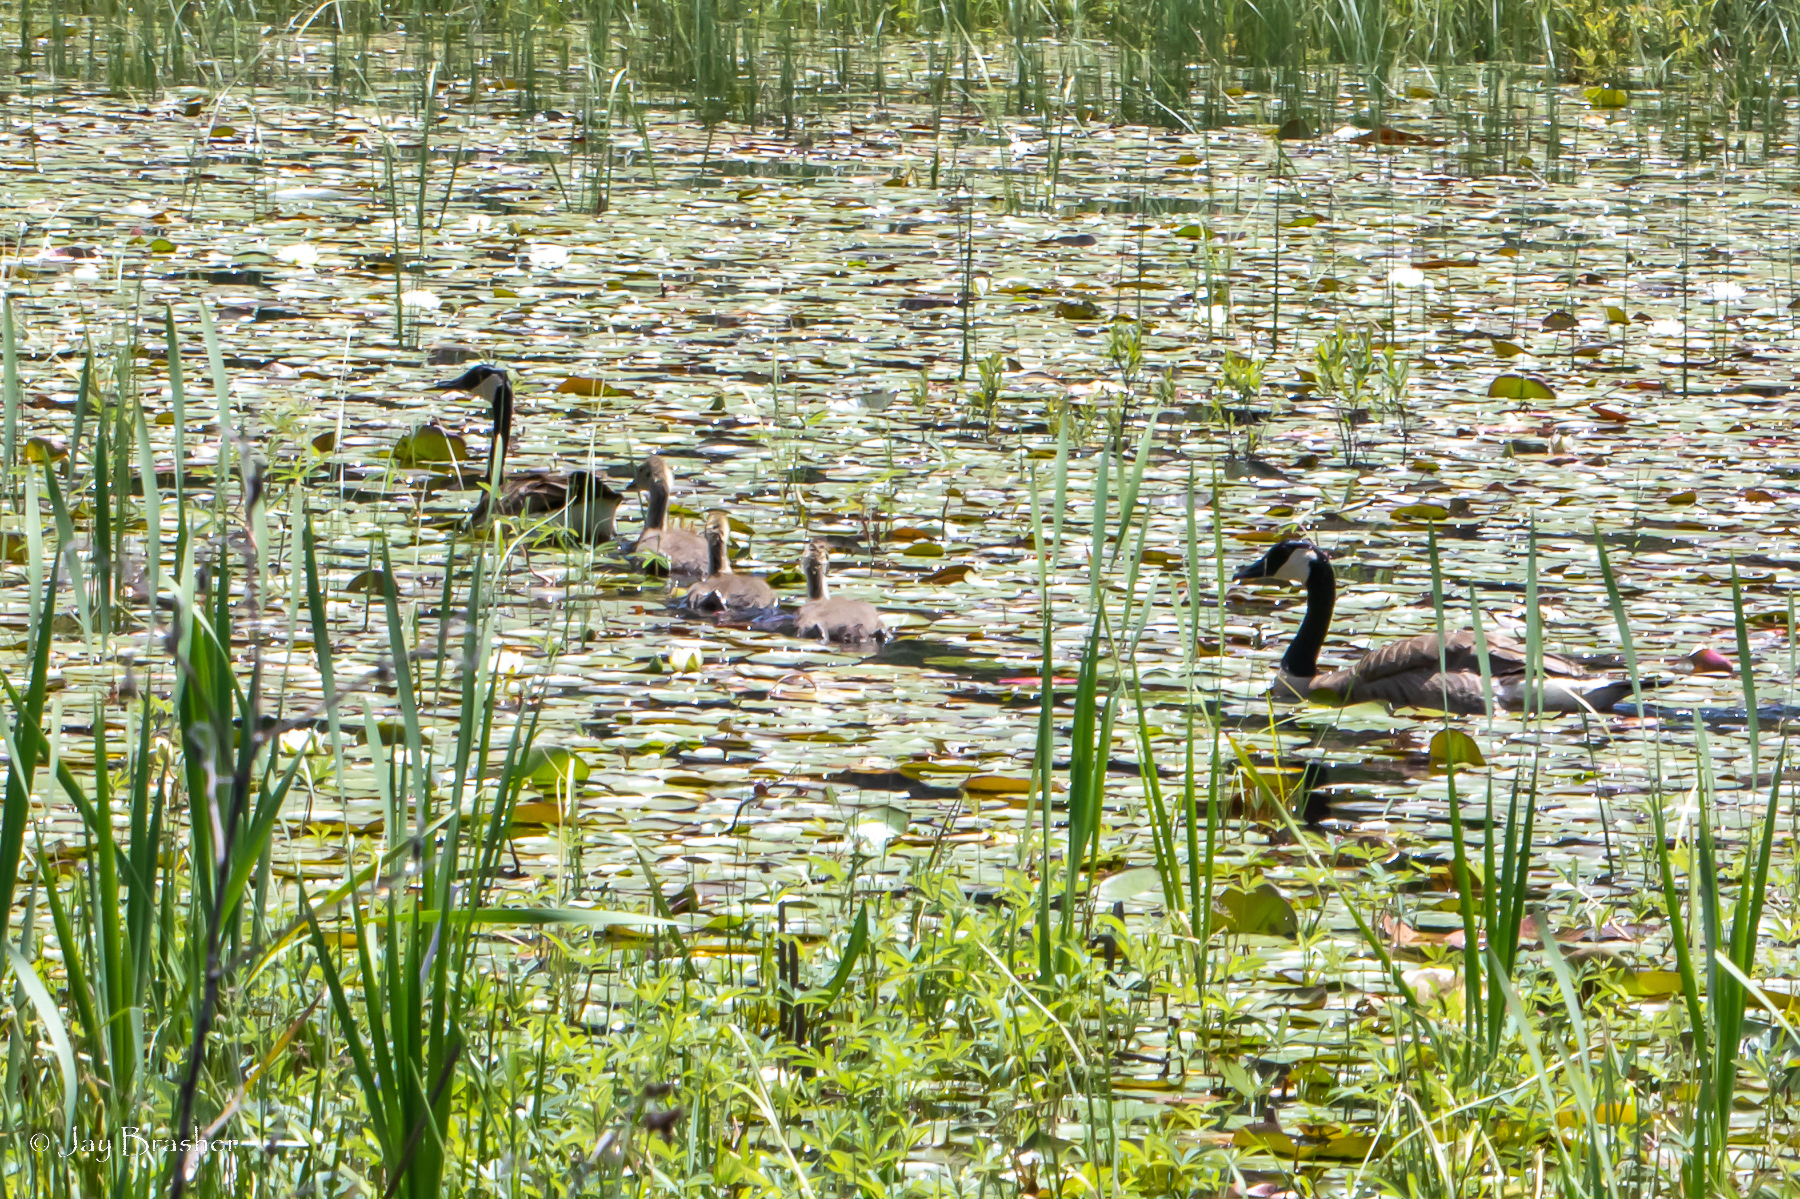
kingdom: Animalia
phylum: Chordata
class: Aves
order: Anseriformes
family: Anatidae
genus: Branta
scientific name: Branta canadensis
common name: Canada goose
